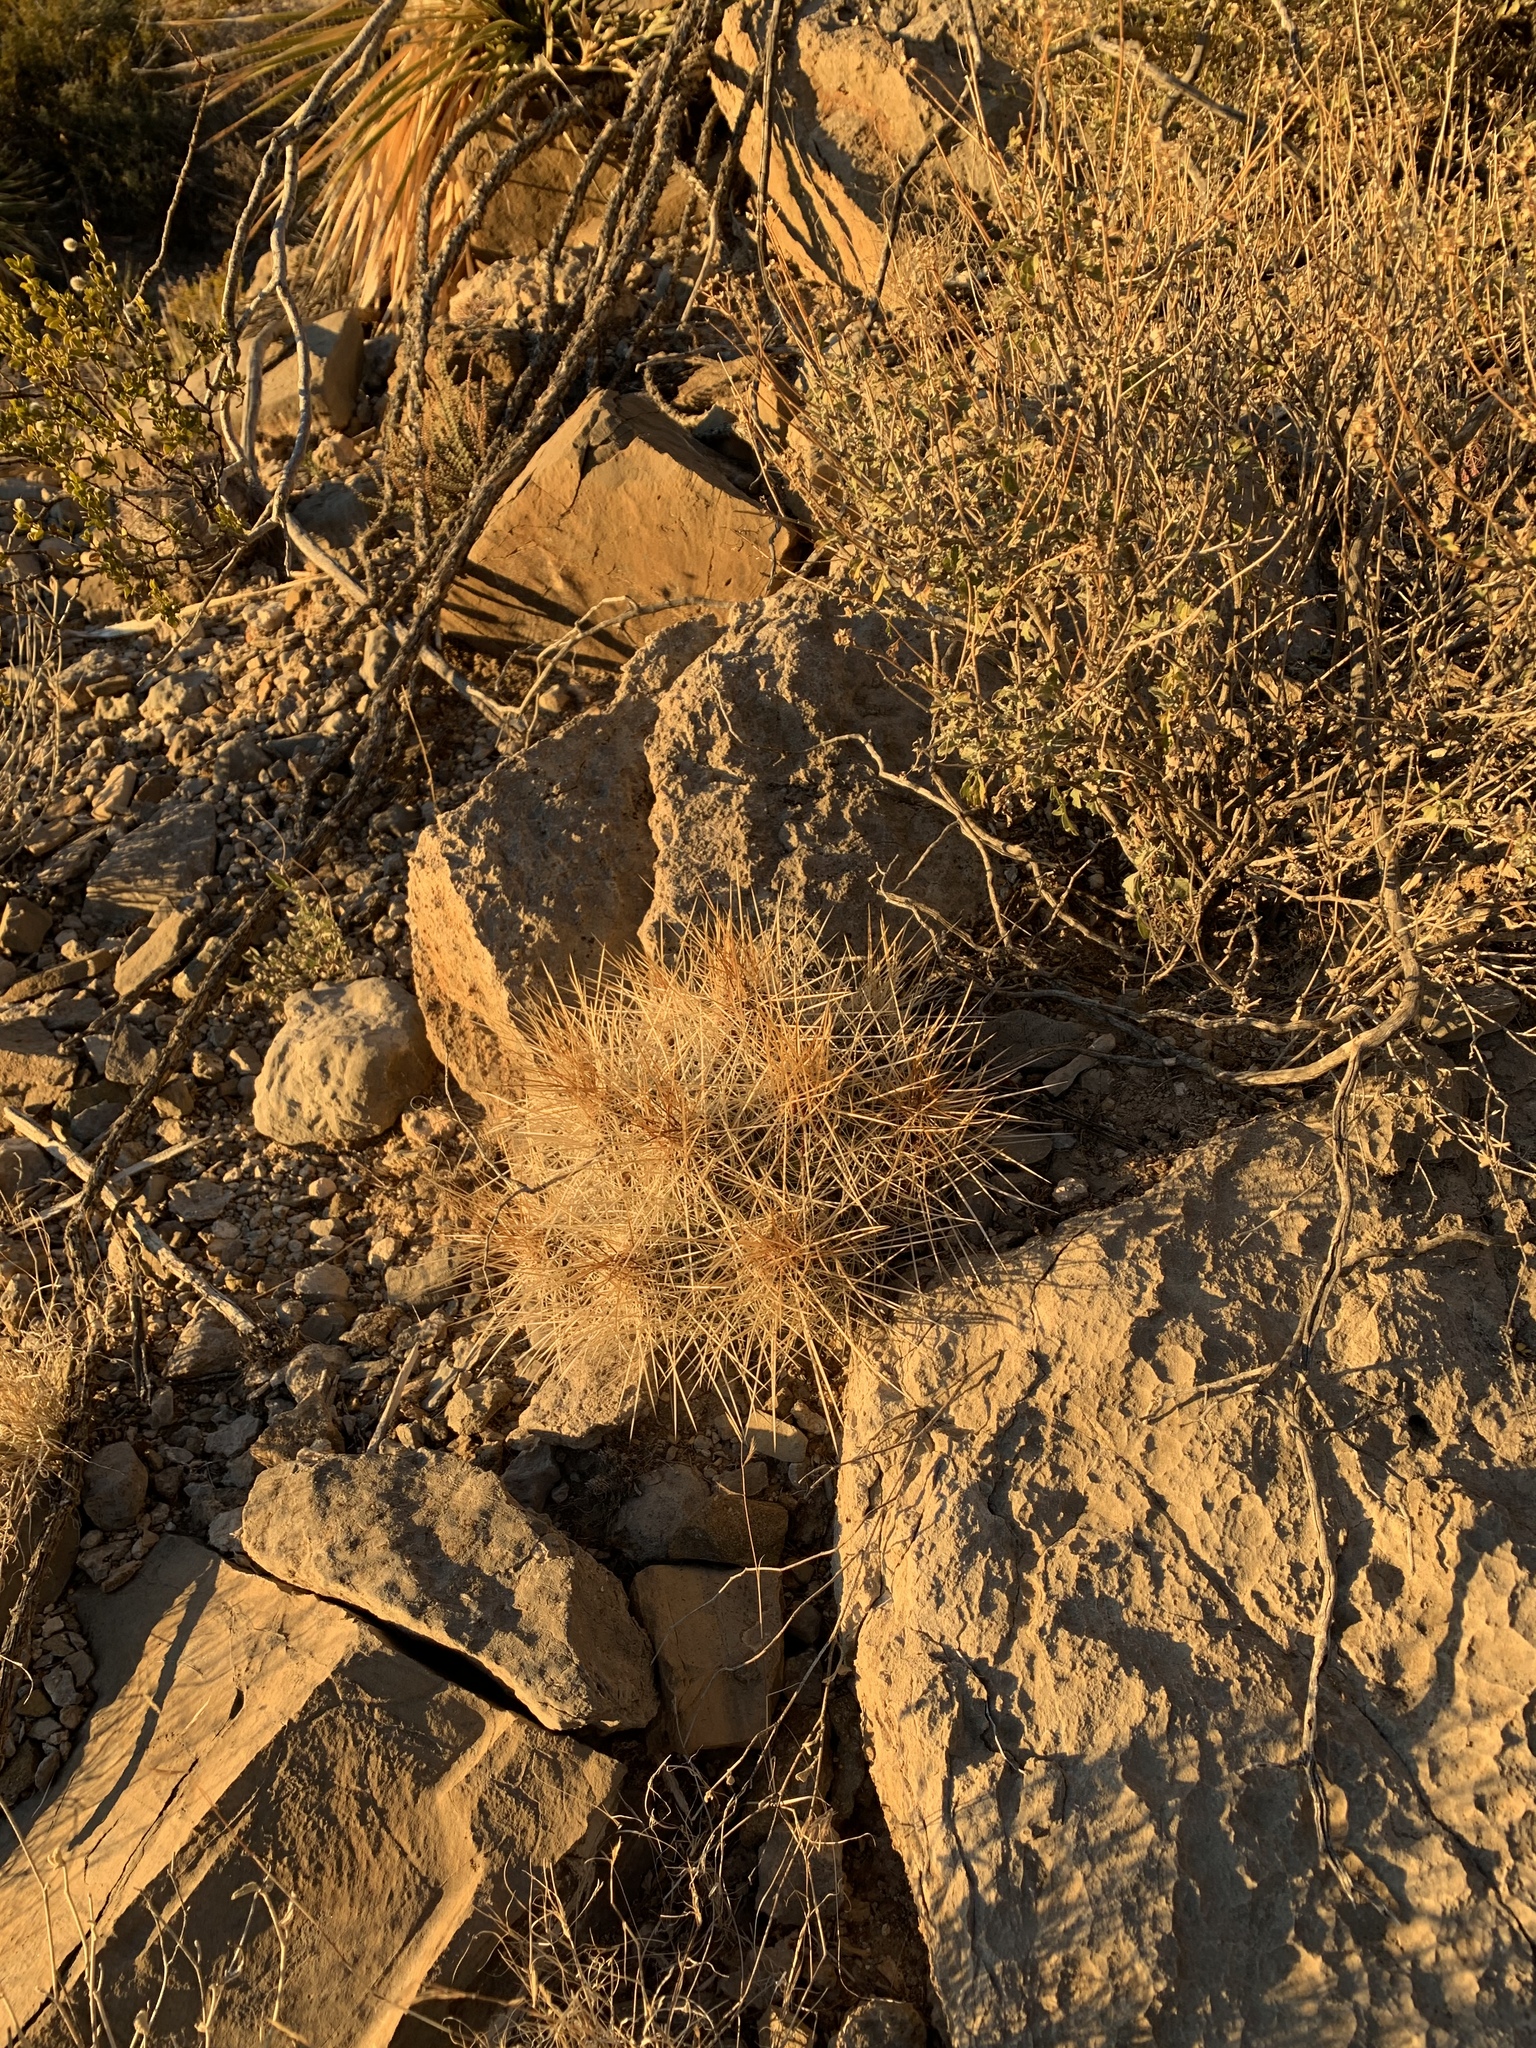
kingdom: Plantae
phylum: Tracheophyta
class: Magnoliopsida
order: Caryophyllales
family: Cactaceae
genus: Echinocereus
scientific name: Echinocereus stramineus
